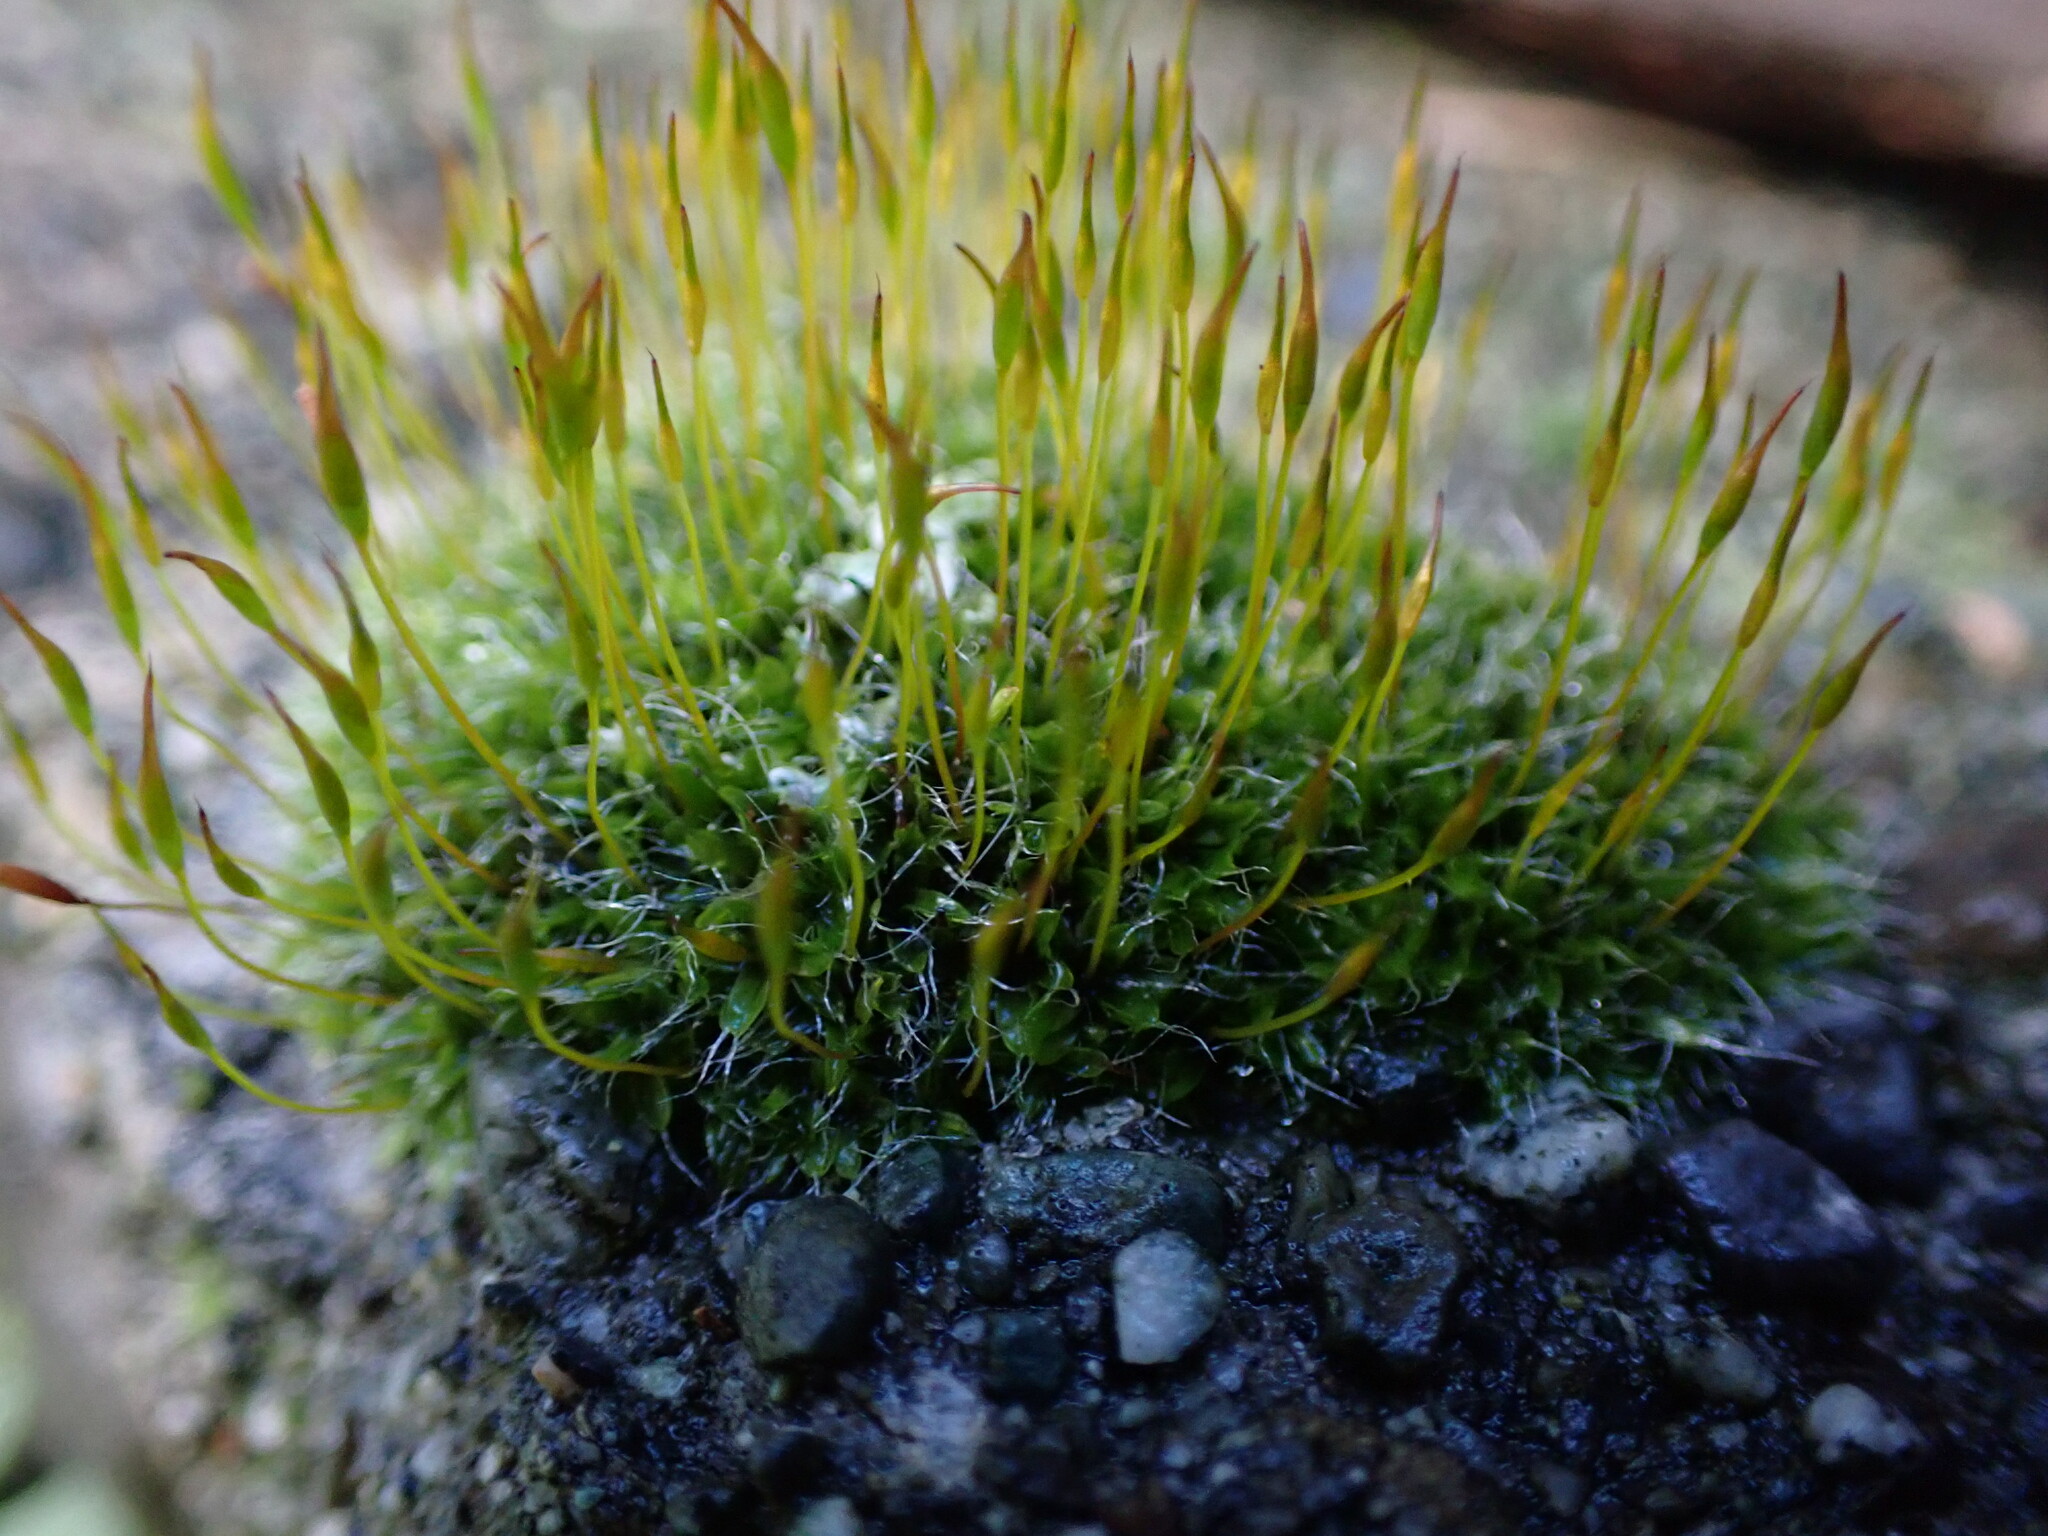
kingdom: Plantae
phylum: Bryophyta
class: Bryopsida
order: Pottiales
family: Pottiaceae
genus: Tortula
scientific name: Tortula muralis
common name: Wall screw-moss
